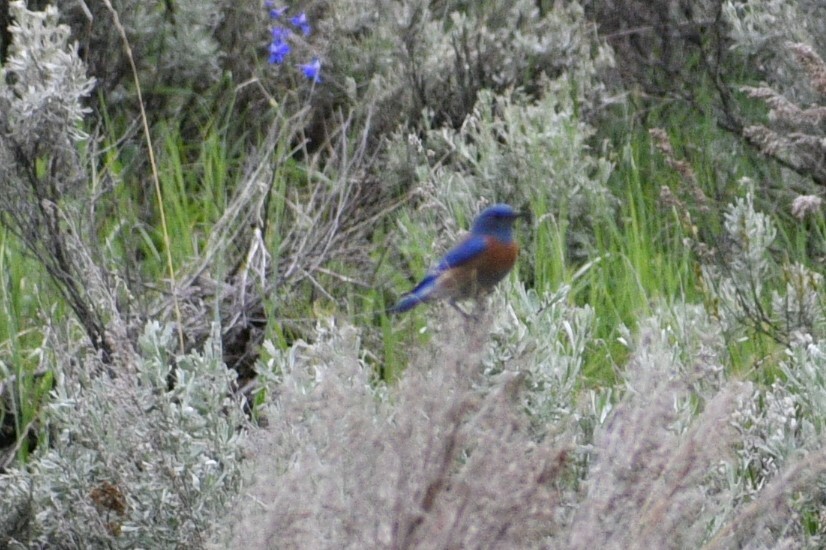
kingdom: Animalia
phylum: Chordata
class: Aves
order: Passeriformes
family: Turdidae
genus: Sialia
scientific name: Sialia mexicana
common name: Western bluebird
